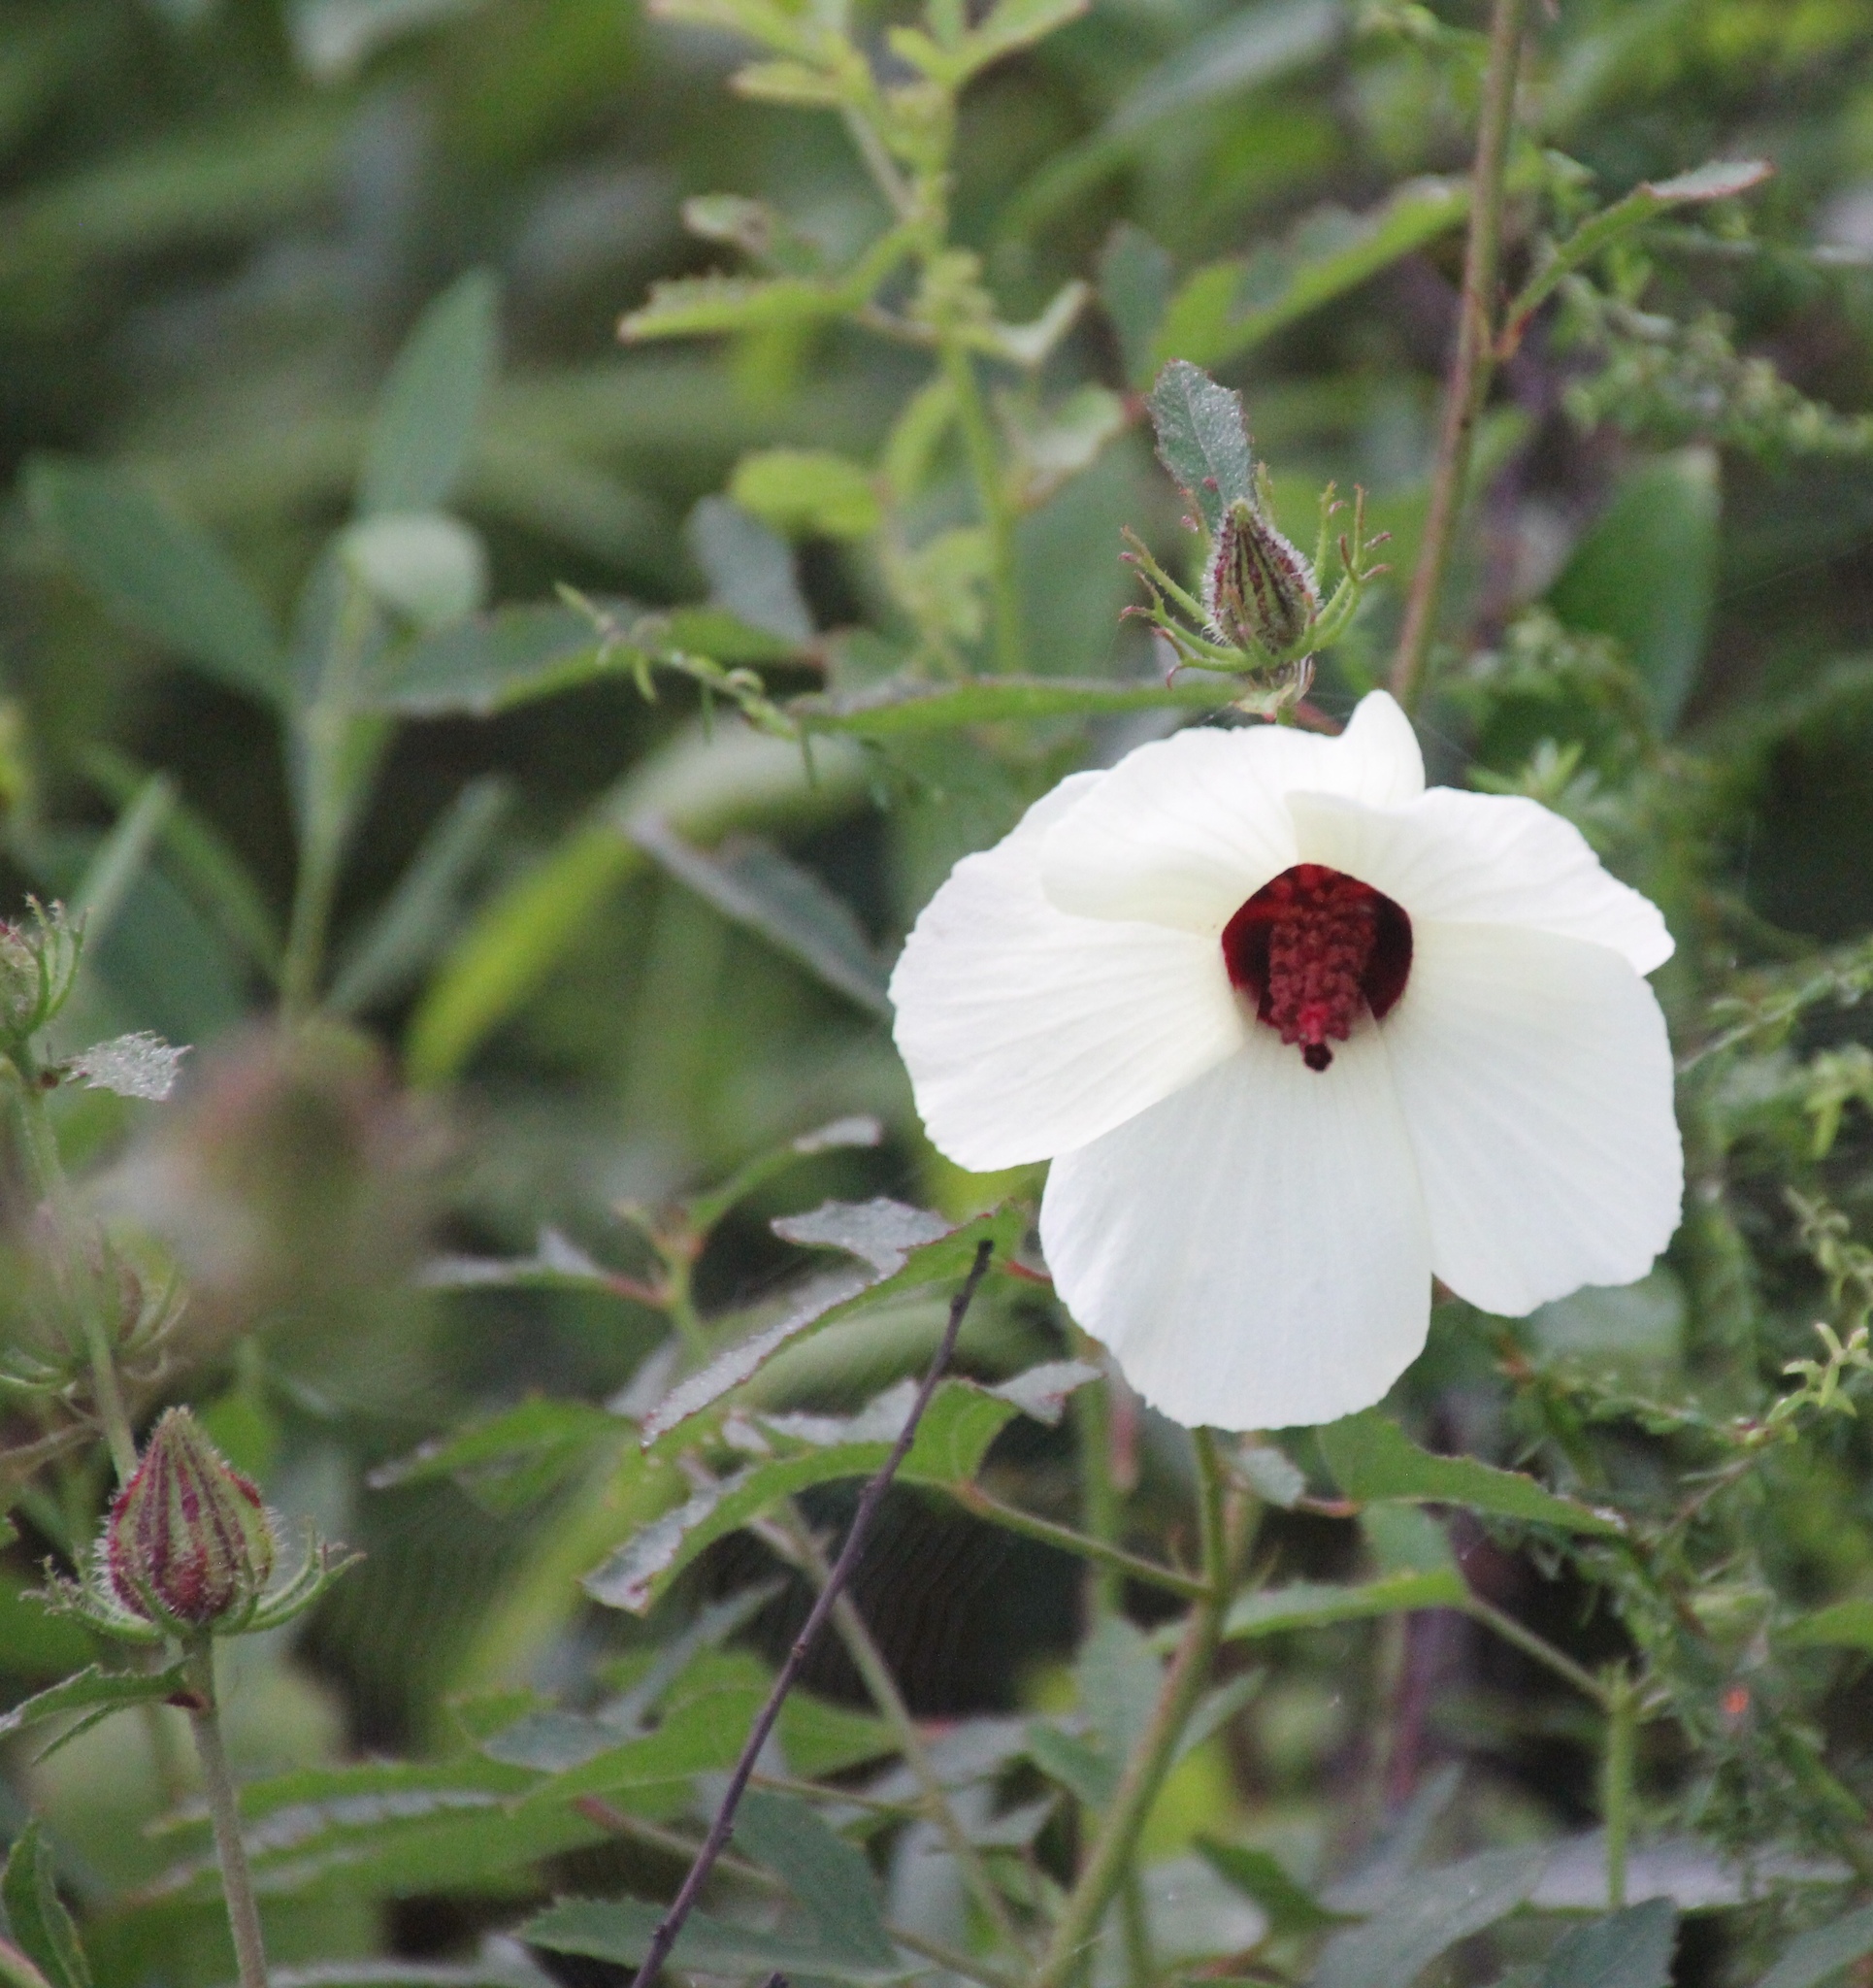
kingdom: Plantae
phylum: Tracheophyta
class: Magnoliopsida
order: Malvales
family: Malvaceae
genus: Hibiscus
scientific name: Hibiscus aculeatus
